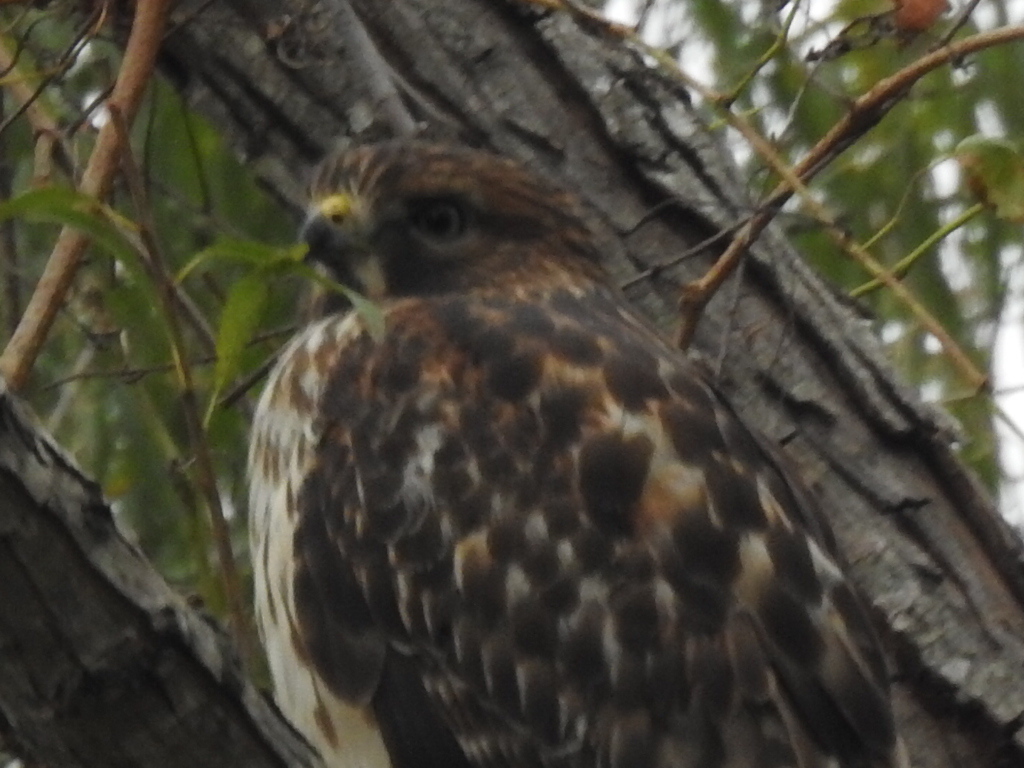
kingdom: Animalia
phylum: Chordata
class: Aves
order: Accipitriformes
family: Accipitridae
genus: Buteo
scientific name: Buteo lineatus
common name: Red-shouldered hawk
